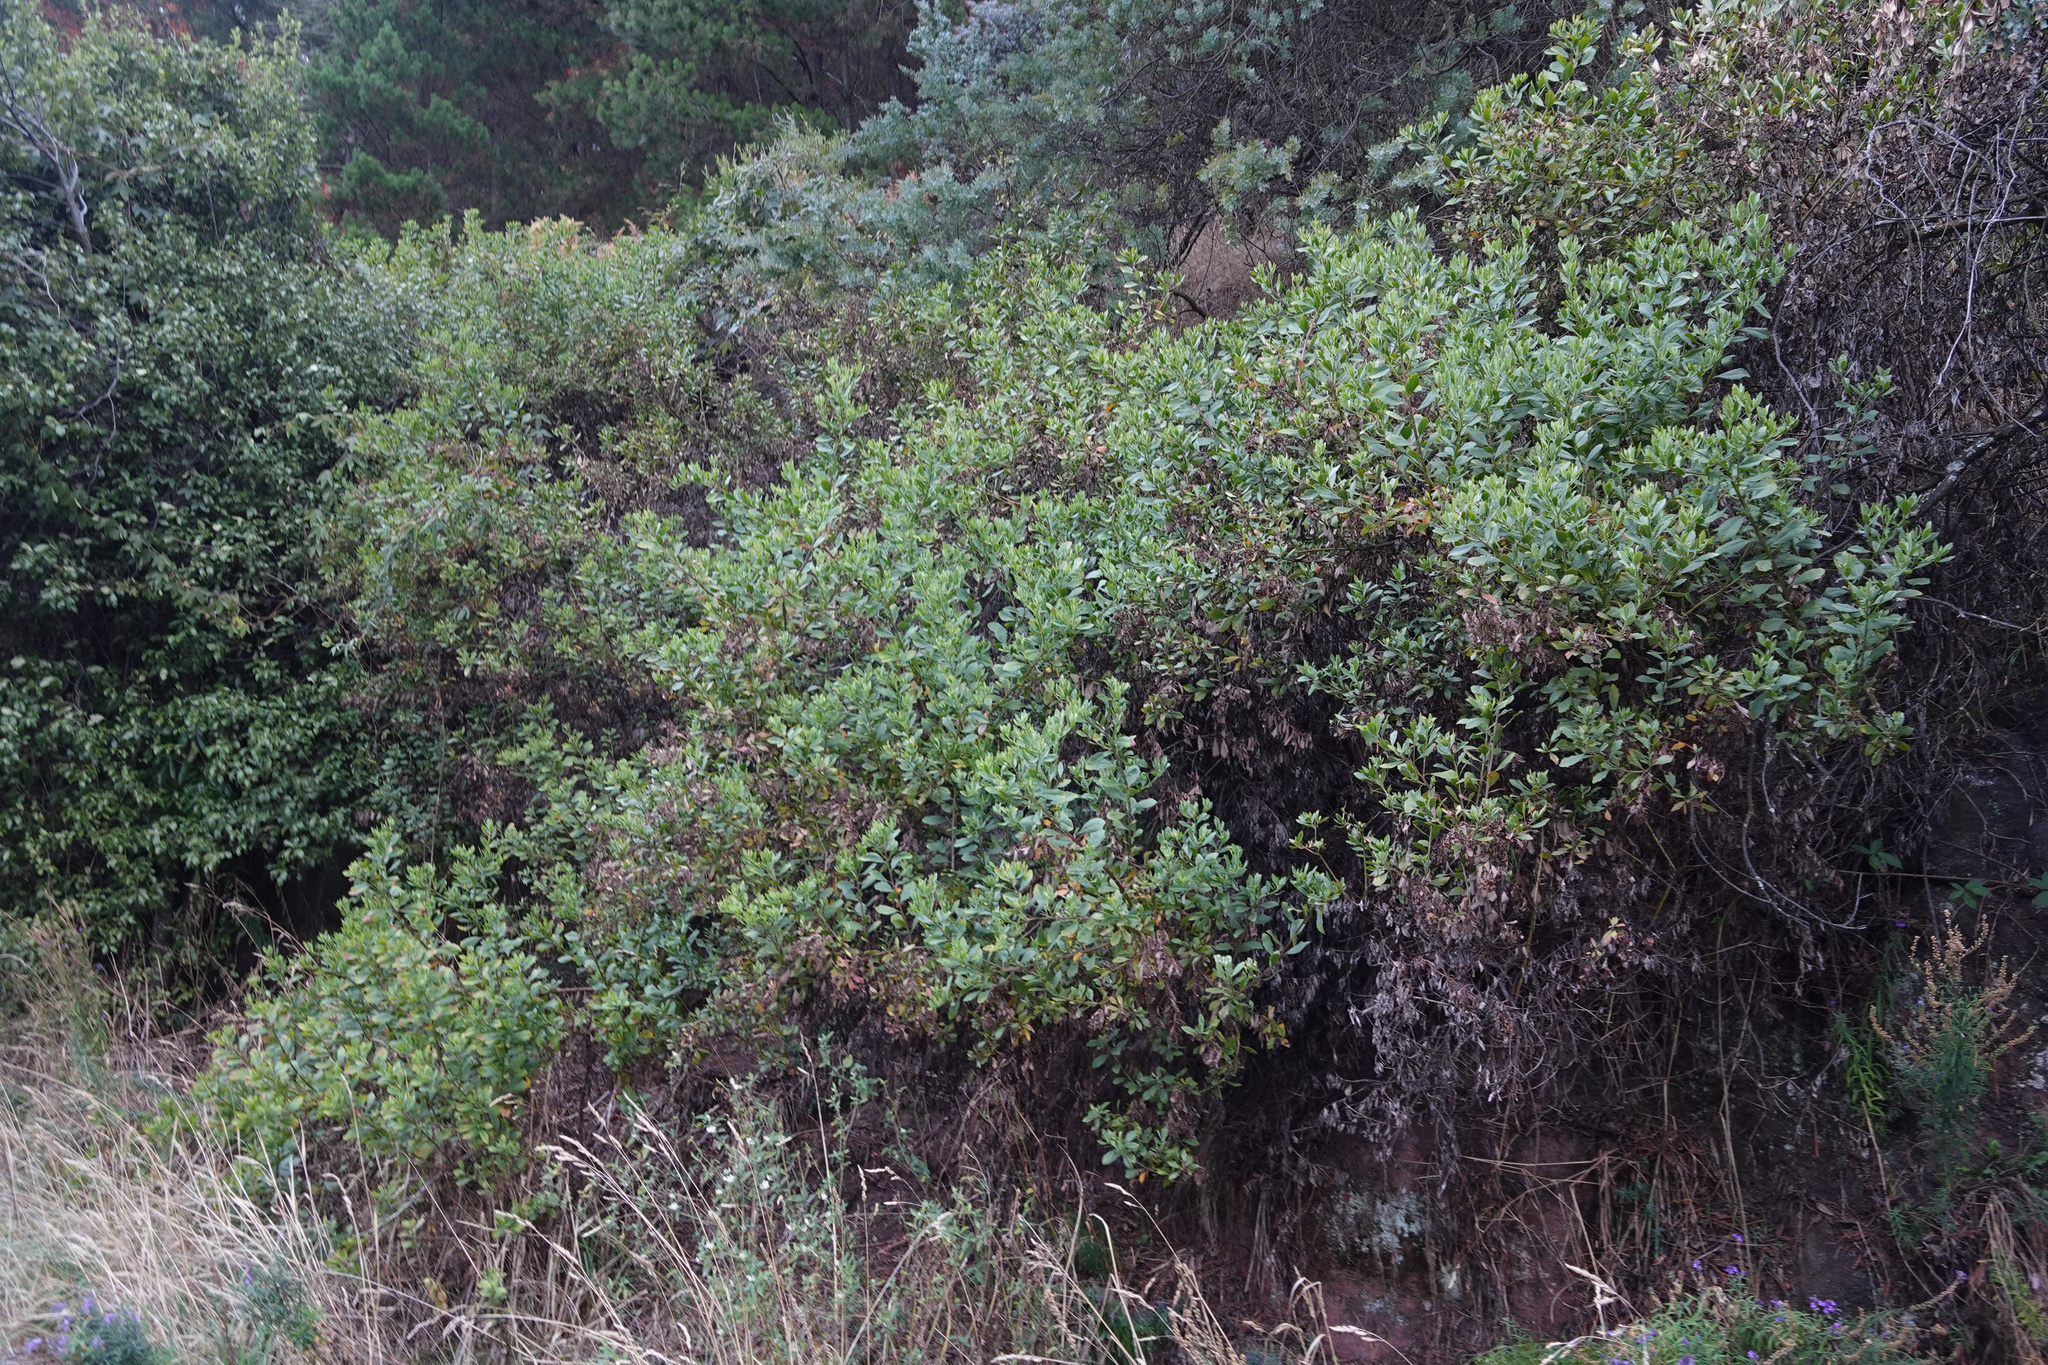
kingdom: Plantae
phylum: Tracheophyta
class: Magnoliopsida
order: Asterales
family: Asteraceae
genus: Osteospermum
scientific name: Osteospermum moniliferum
